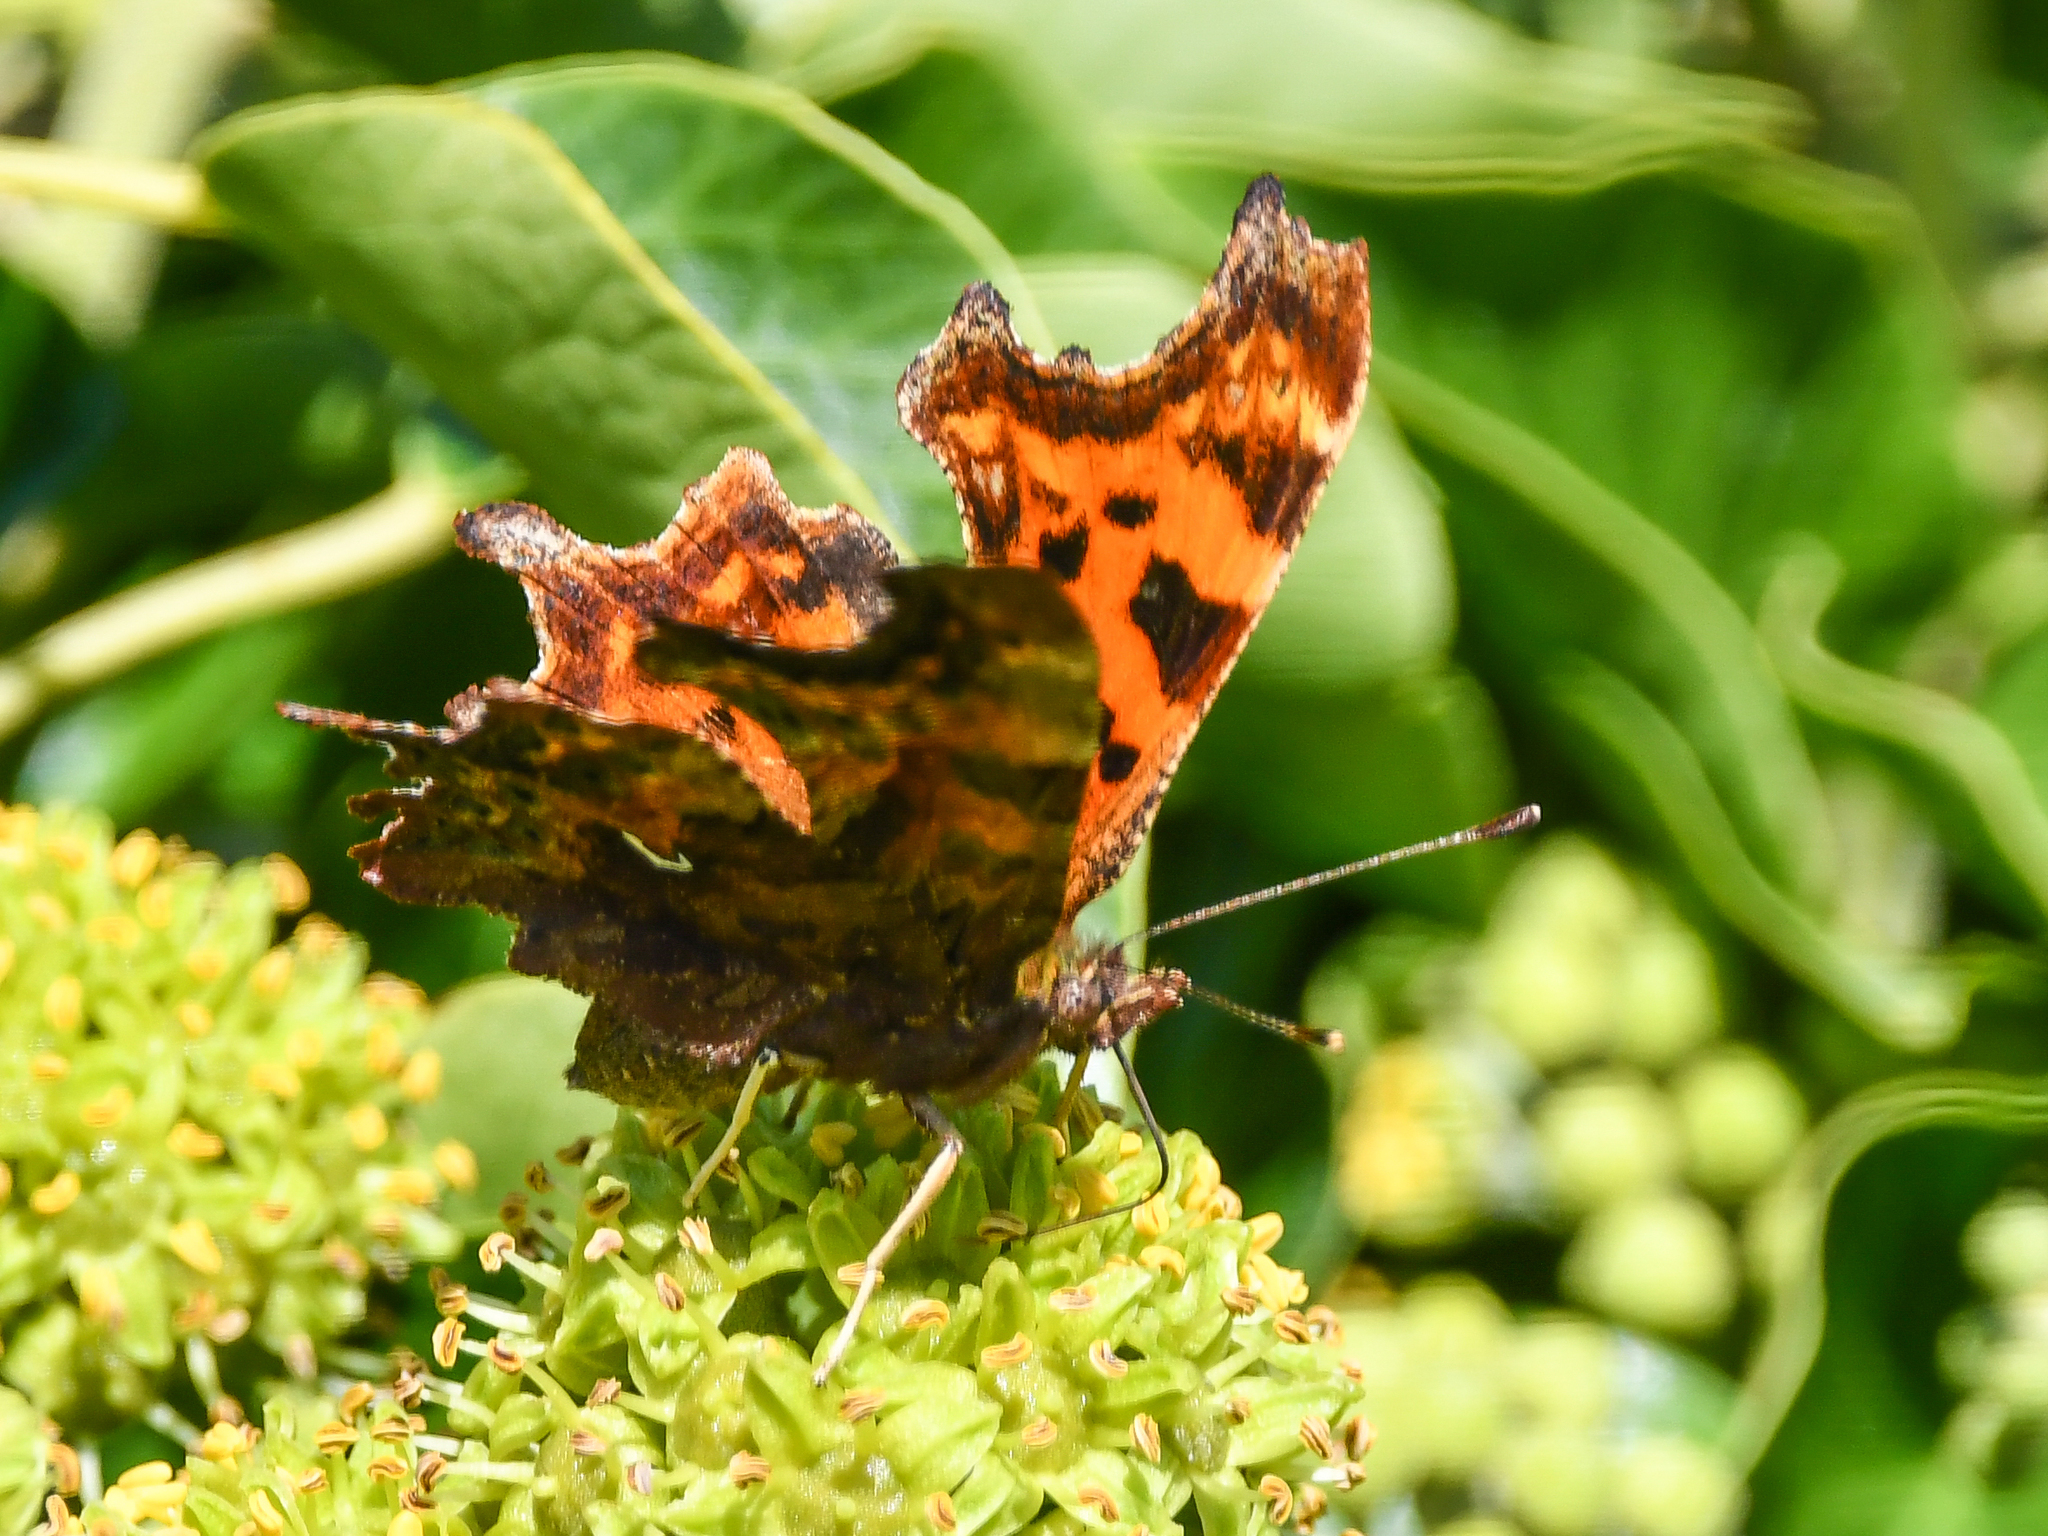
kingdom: Animalia
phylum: Arthropoda
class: Insecta
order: Lepidoptera
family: Nymphalidae
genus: Polygonia
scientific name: Polygonia c-album
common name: Comma
